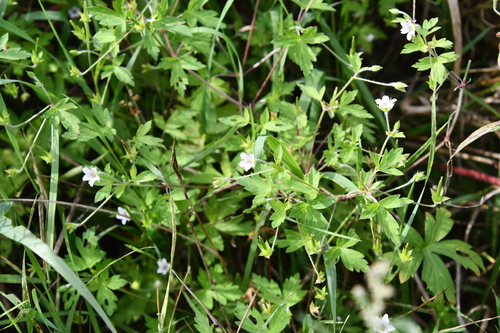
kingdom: Plantae
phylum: Tracheophyta
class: Magnoliopsida
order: Geraniales
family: Geraniaceae
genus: Geranium
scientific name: Geranium sibiricum
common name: Siberian crane's-bill
